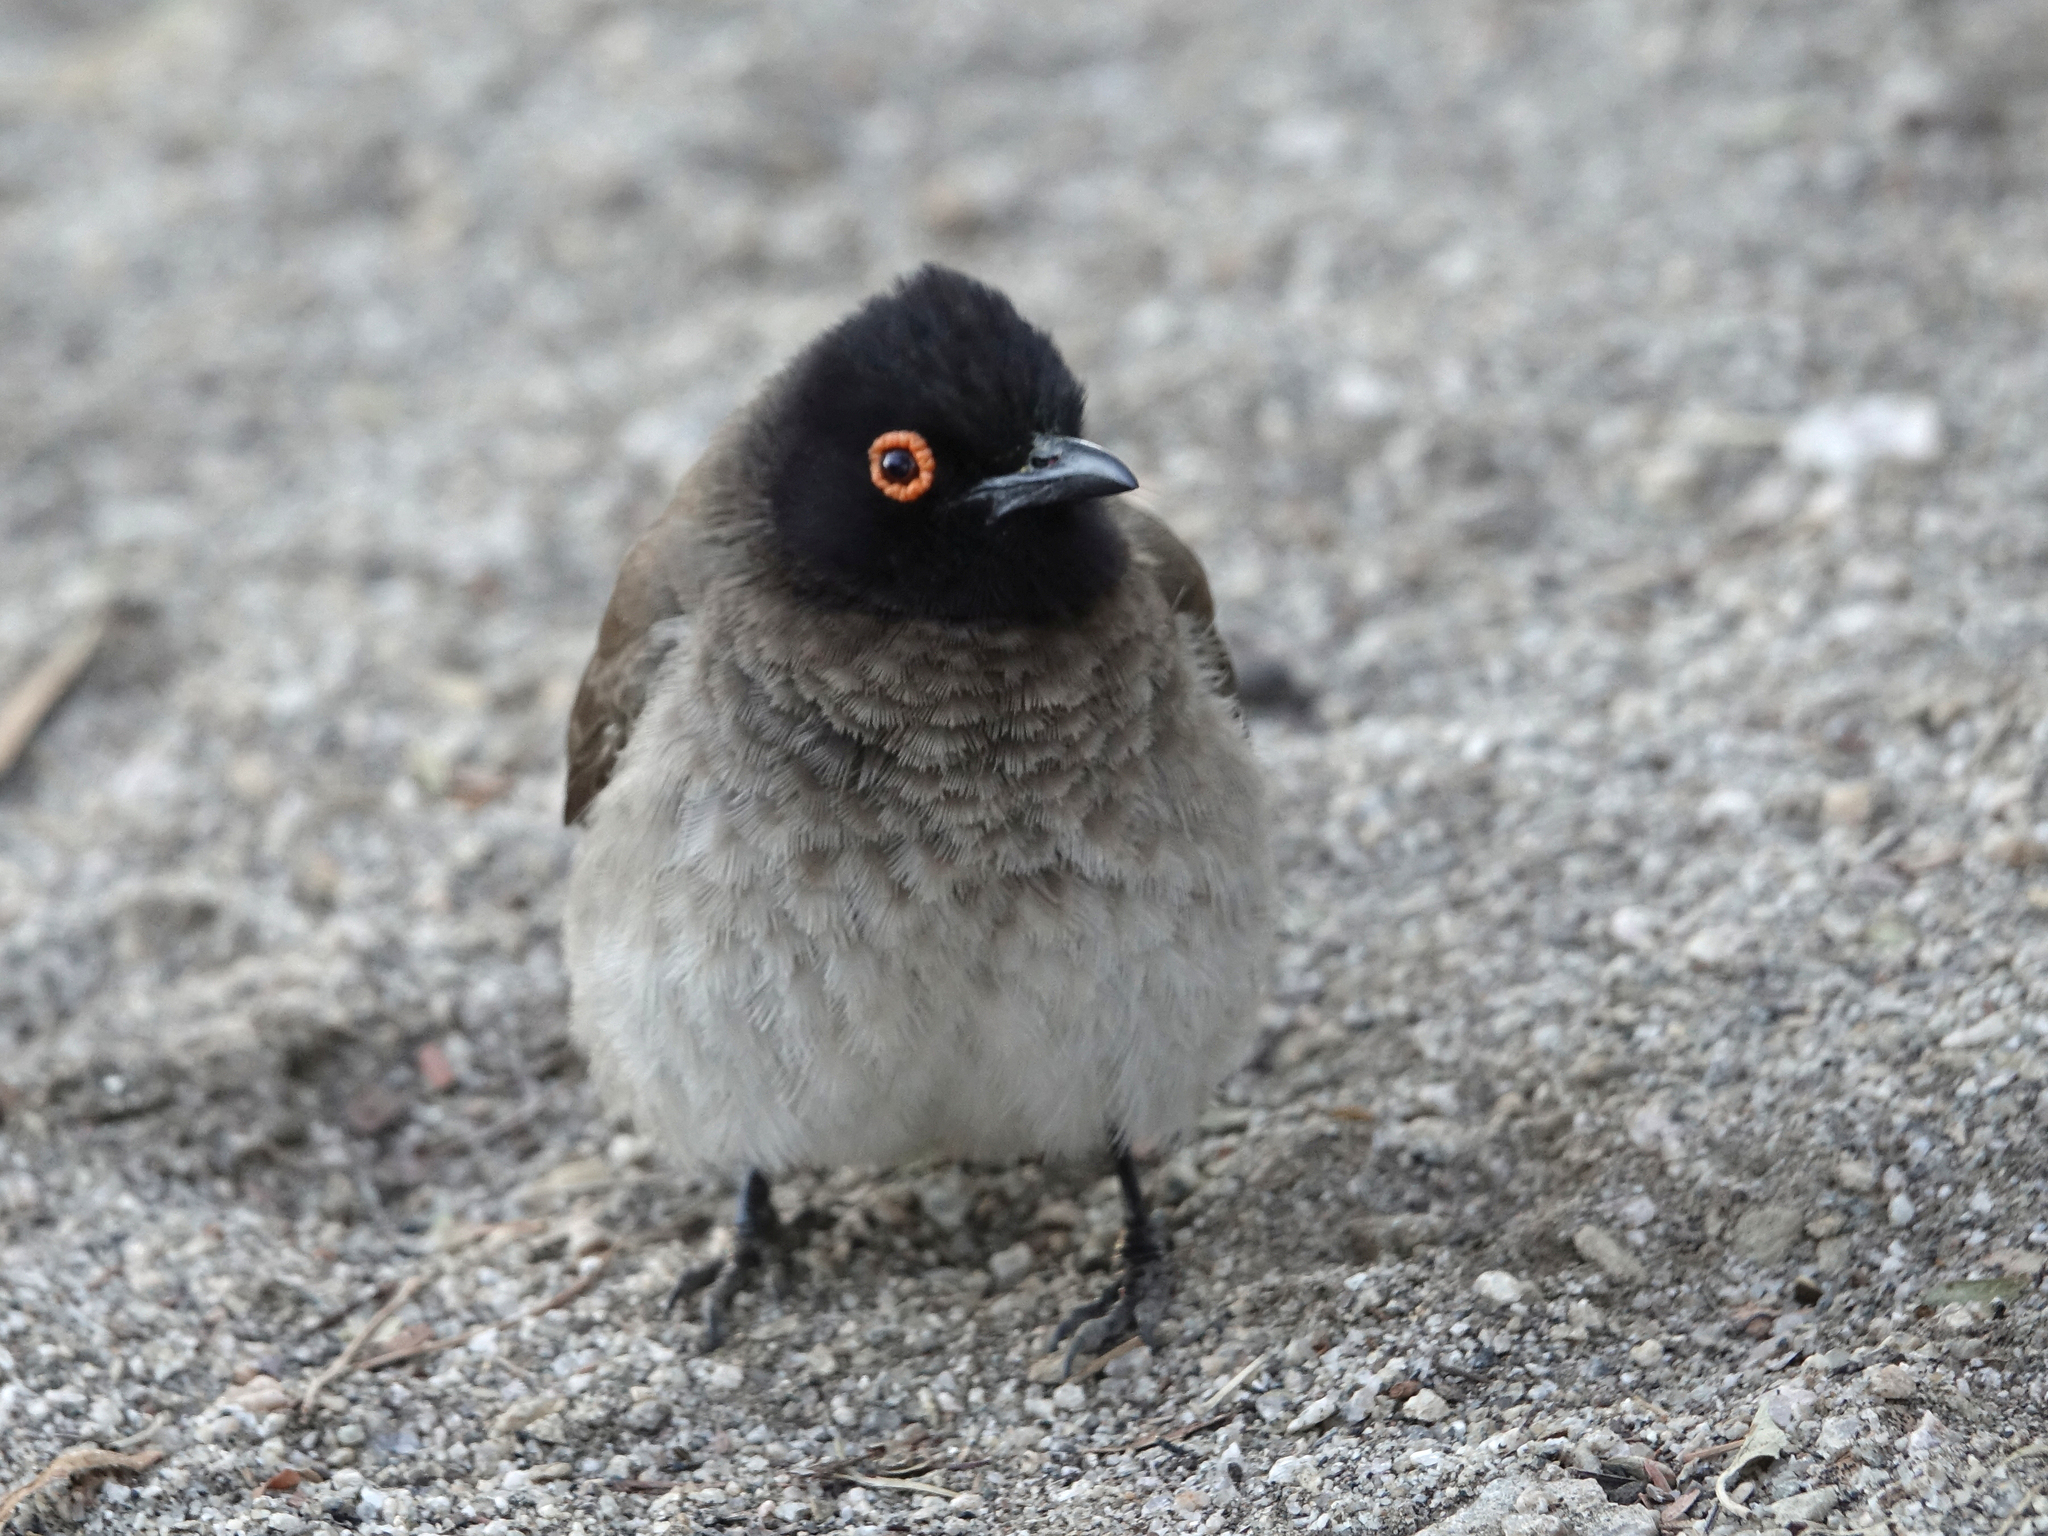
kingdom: Animalia
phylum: Chordata
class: Aves
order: Passeriformes
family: Pycnonotidae
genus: Pycnonotus
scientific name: Pycnonotus nigricans
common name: African red-eyed bulbul
